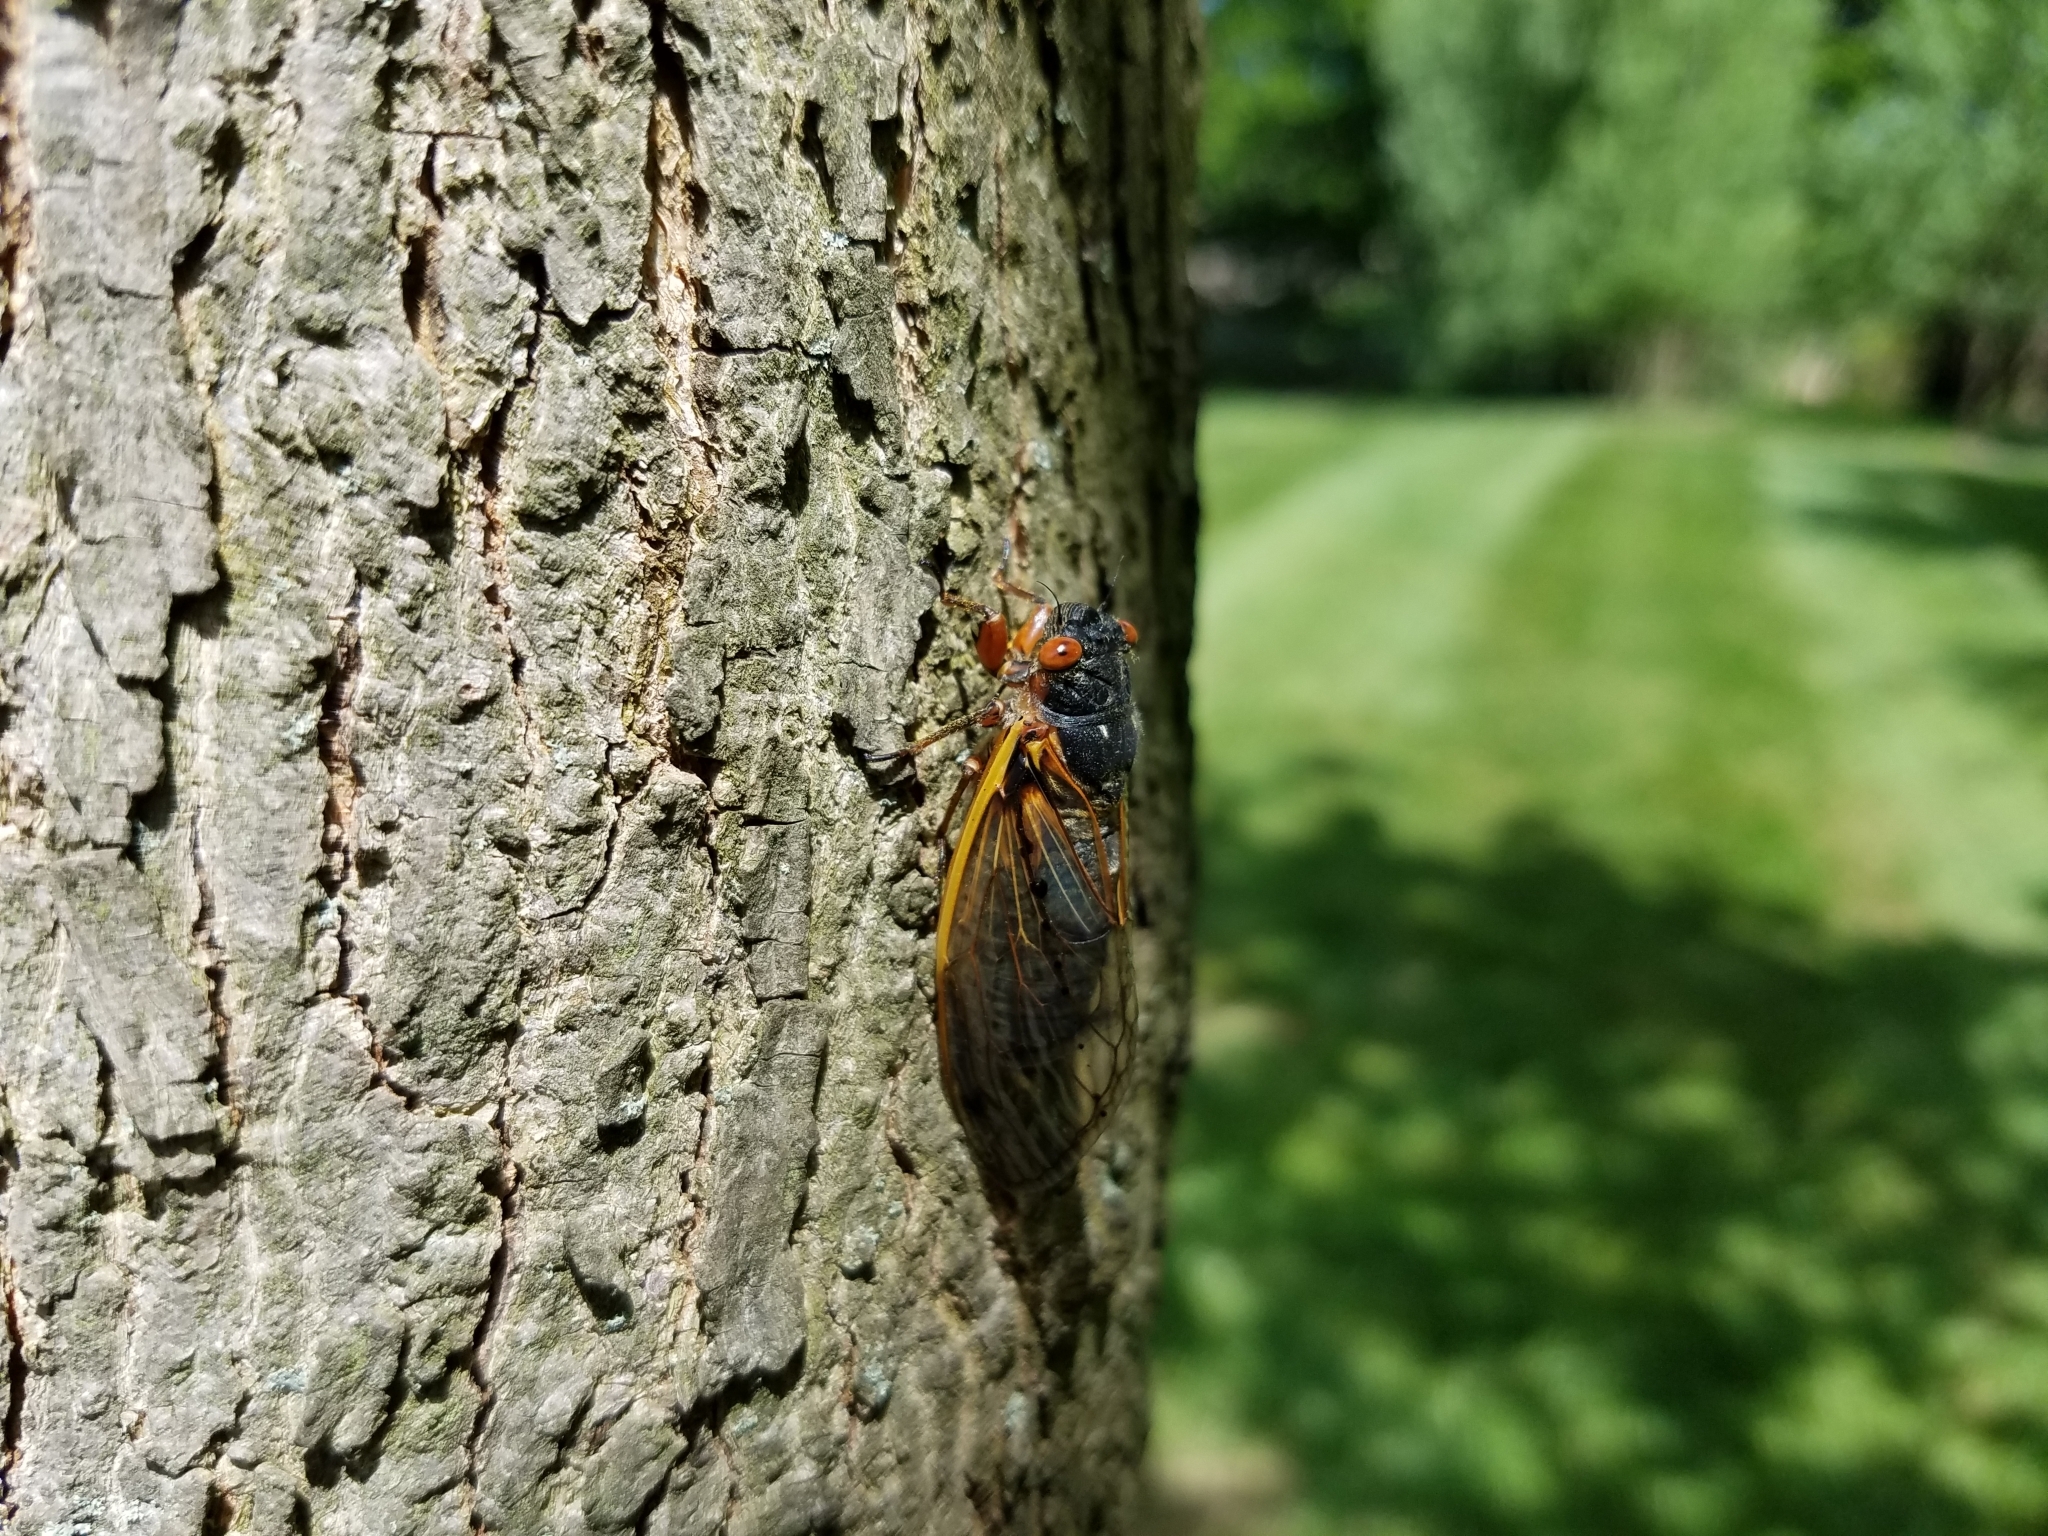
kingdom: Animalia
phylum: Arthropoda
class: Insecta
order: Hemiptera
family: Cicadidae
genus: Magicicada
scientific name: Magicicada septendecim
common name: Periodical cicada
